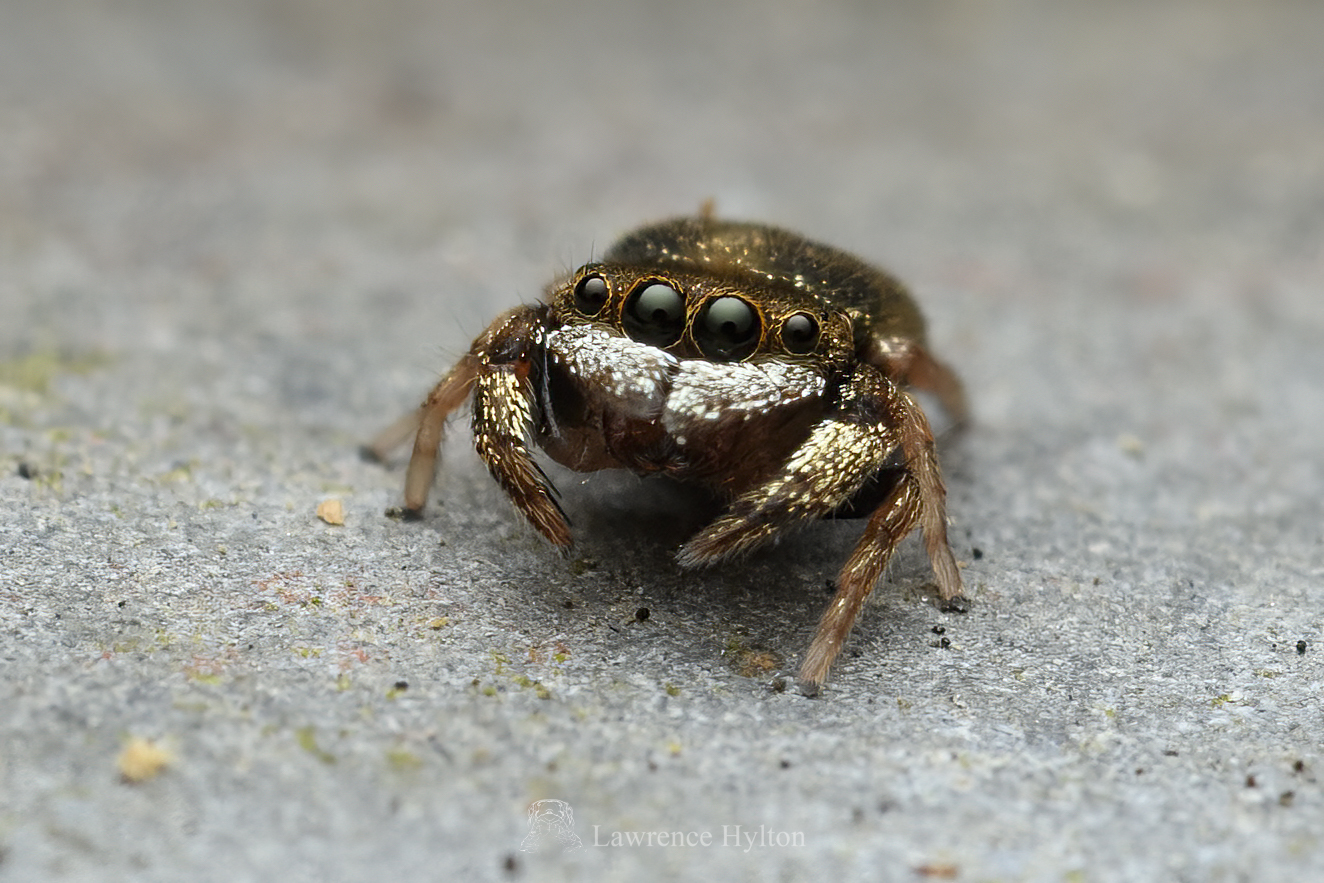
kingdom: Animalia
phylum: Arthropoda
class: Arachnida
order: Araneae
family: Salticidae
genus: Irura
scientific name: Irura bidenticulata
